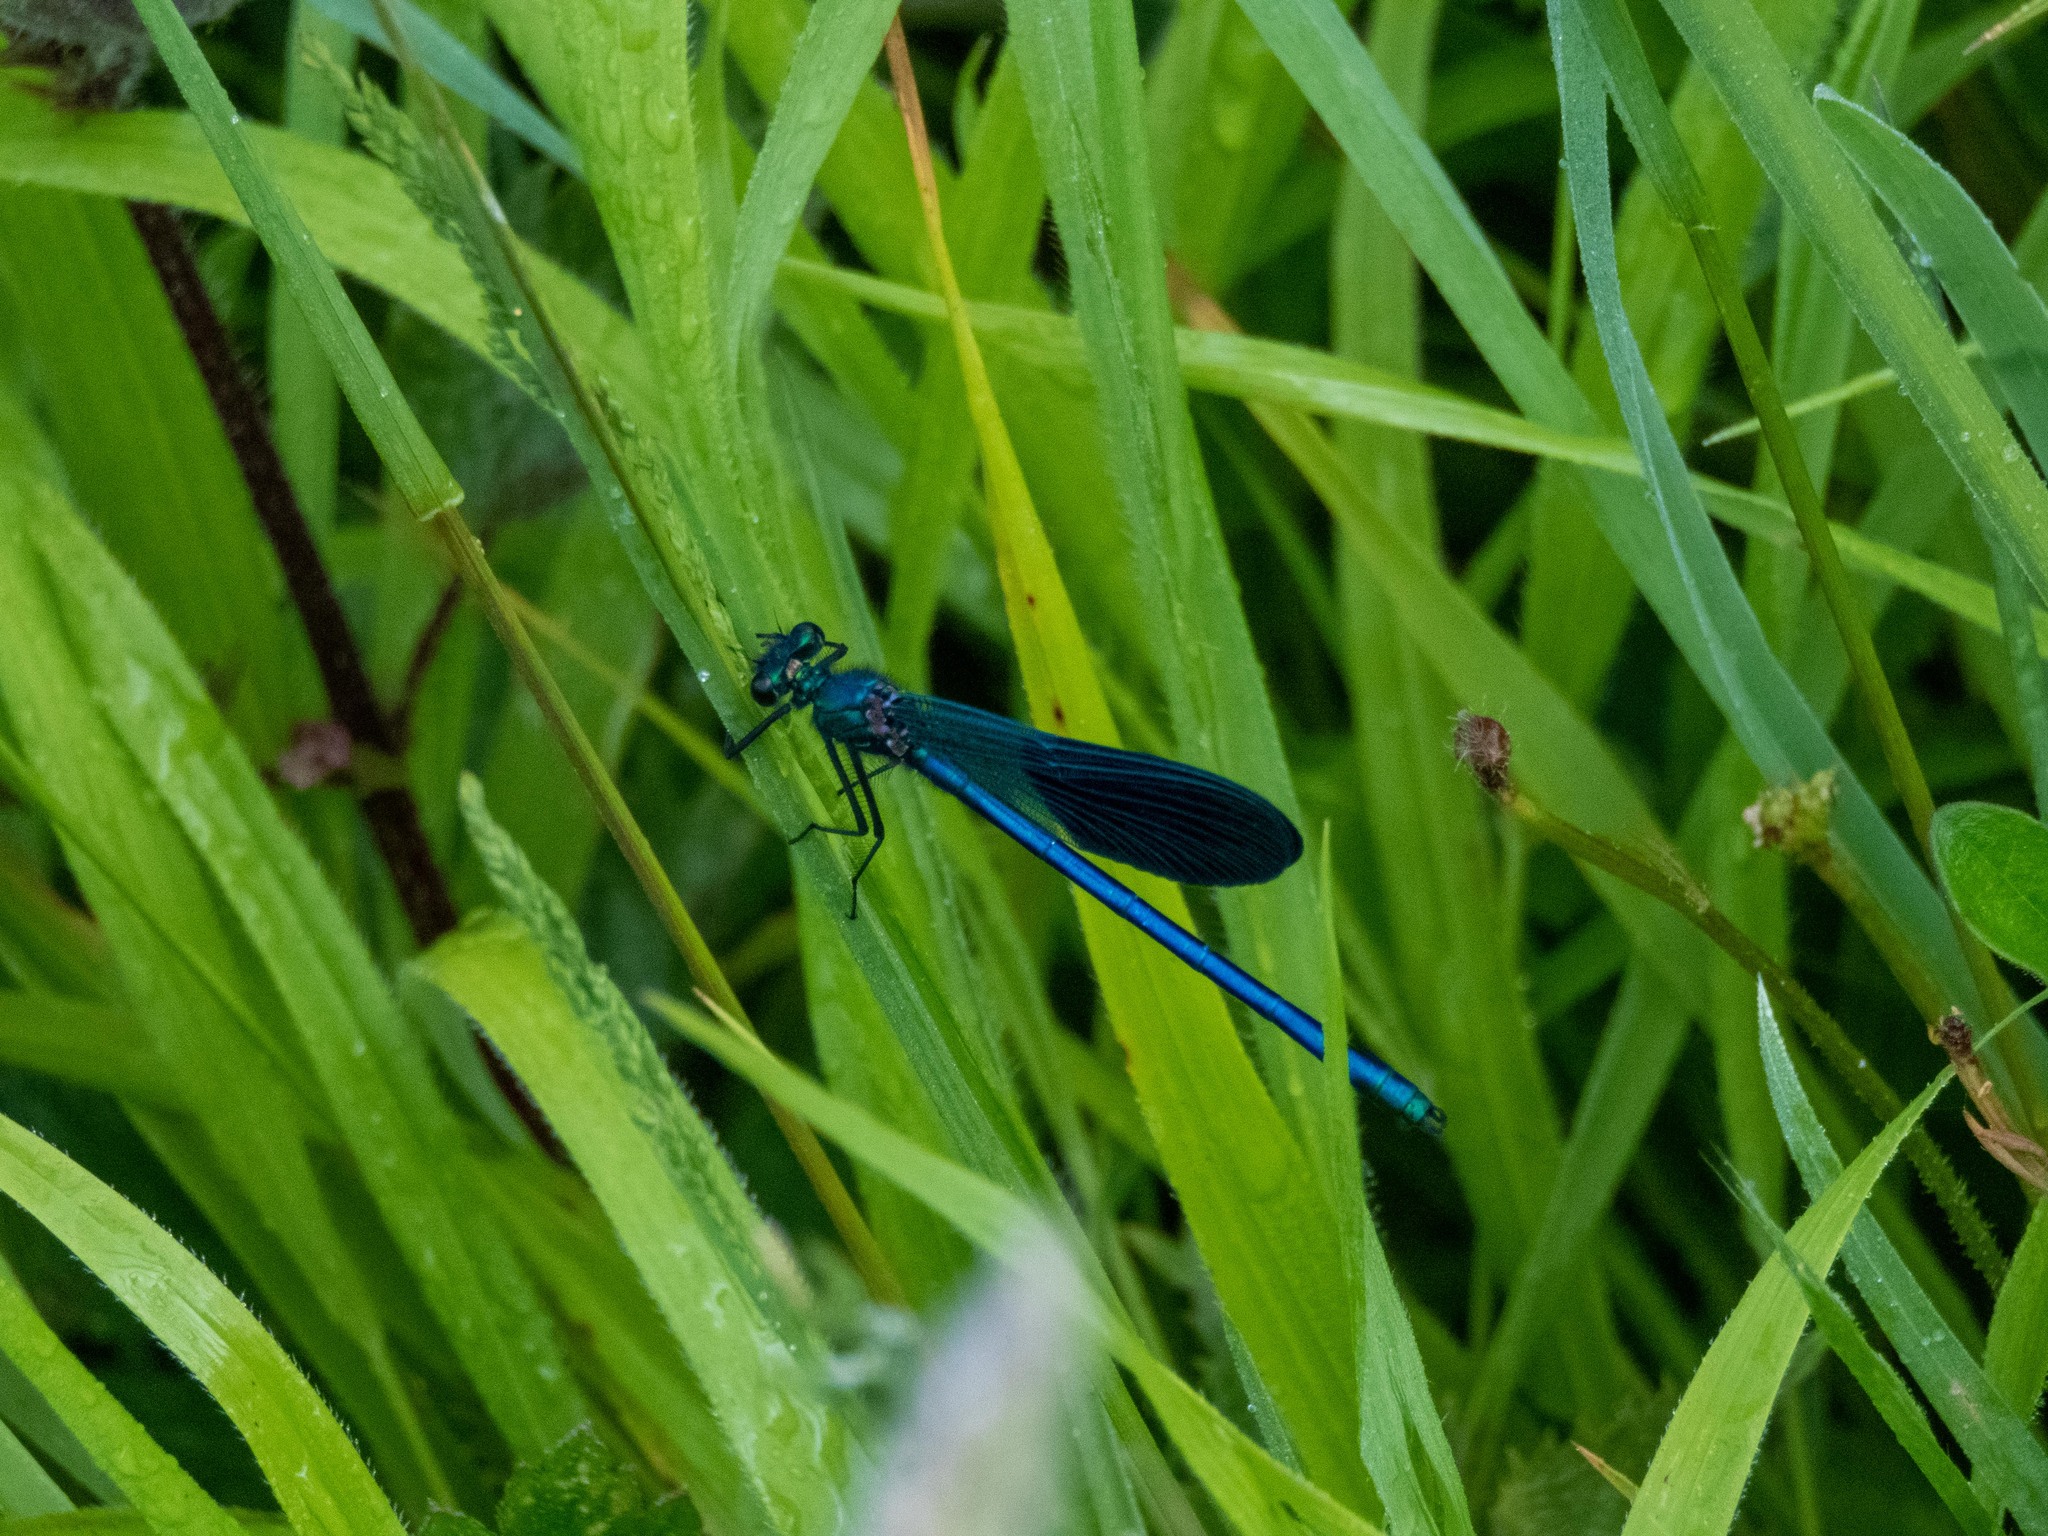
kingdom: Animalia
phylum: Arthropoda
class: Insecta
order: Odonata
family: Calopterygidae
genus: Calopteryx
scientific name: Calopteryx xanthostoma
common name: Western demoiselle
